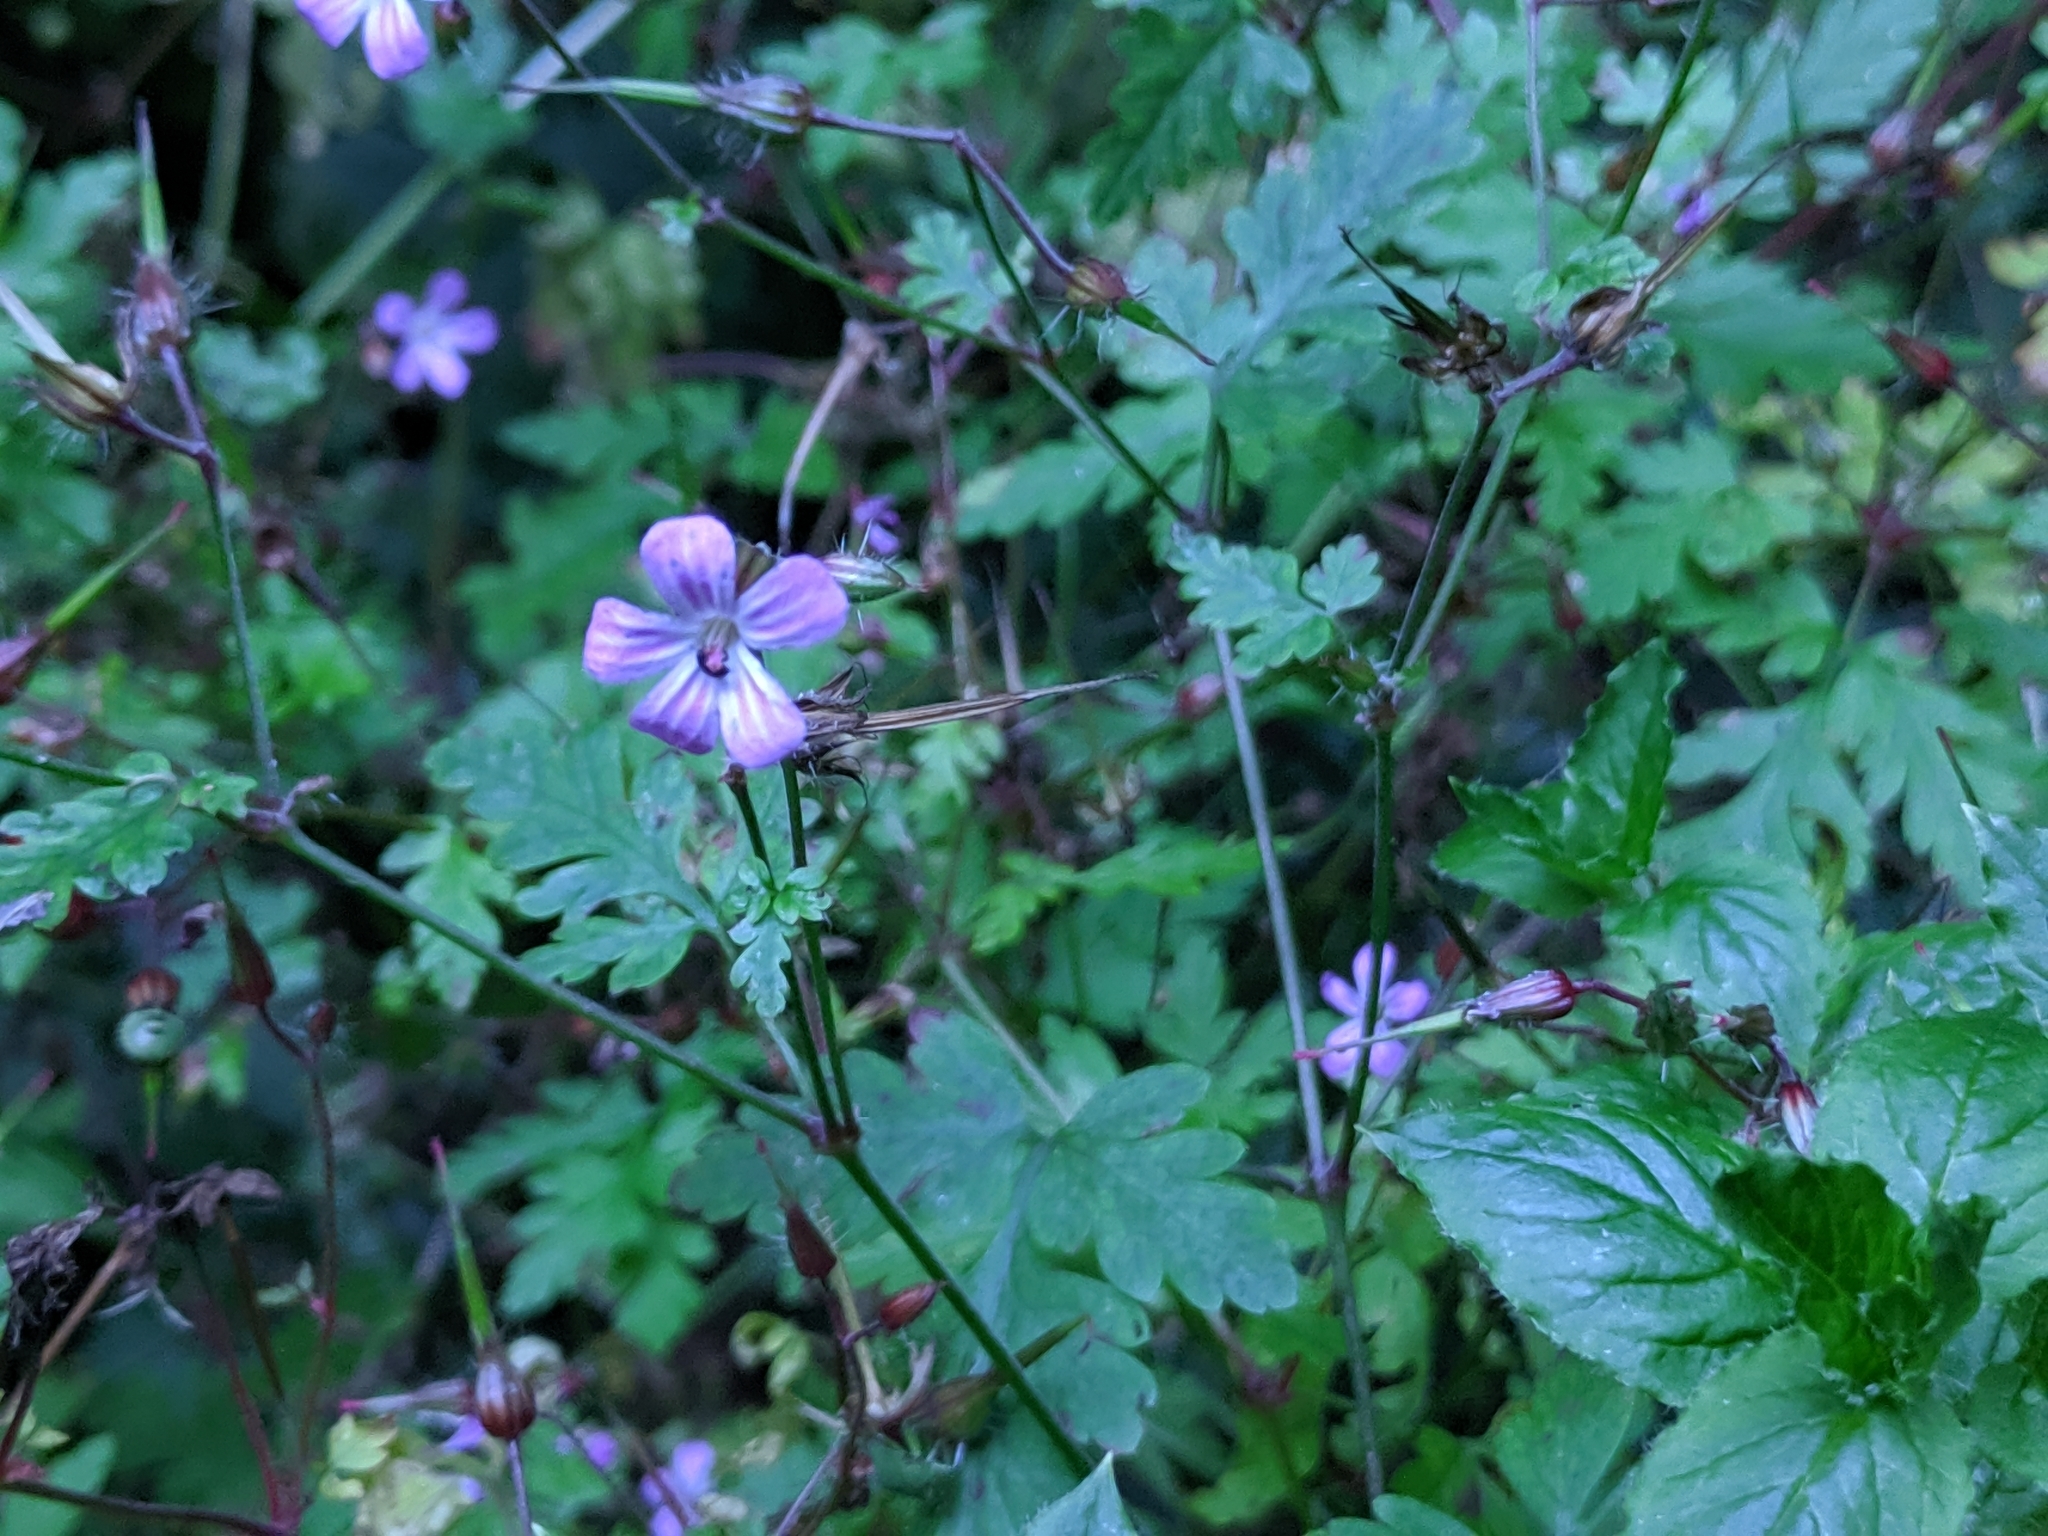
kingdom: Plantae
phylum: Tracheophyta
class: Magnoliopsida
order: Geraniales
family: Geraniaceae
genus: Geranium
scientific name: Geranium robertianum
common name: Herb-robert
